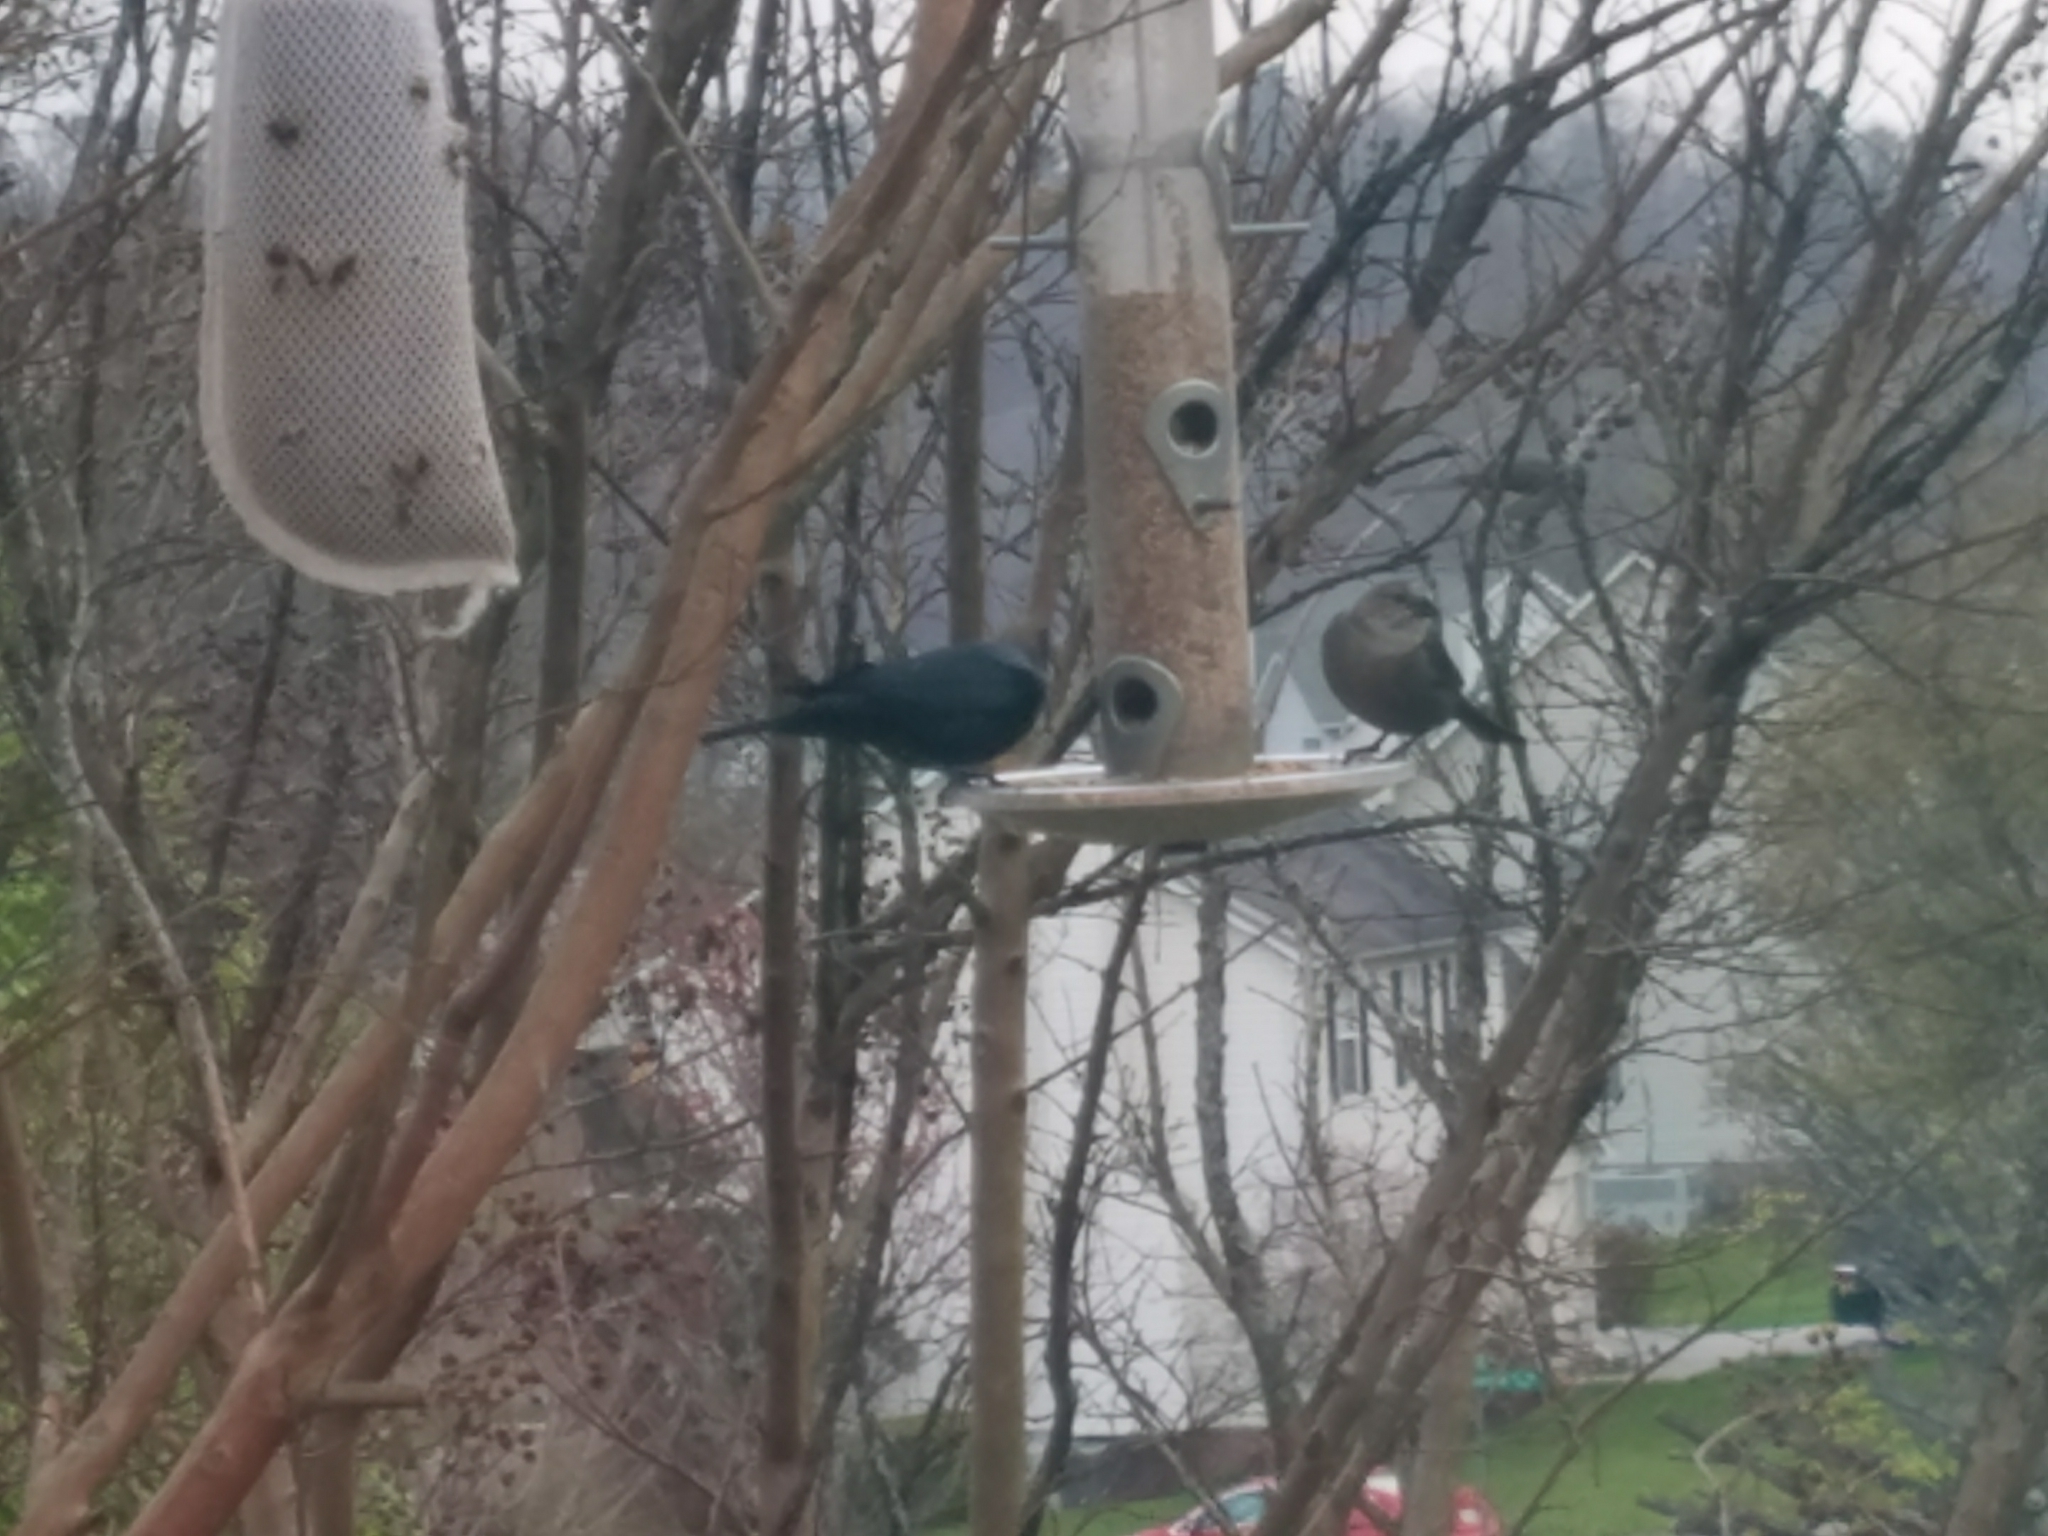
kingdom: Animalia
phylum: Chordata
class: Aves
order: Passeriformes
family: Icteridae
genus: Molothrus
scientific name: Molothrus ater
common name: Brown-headed cowbird
